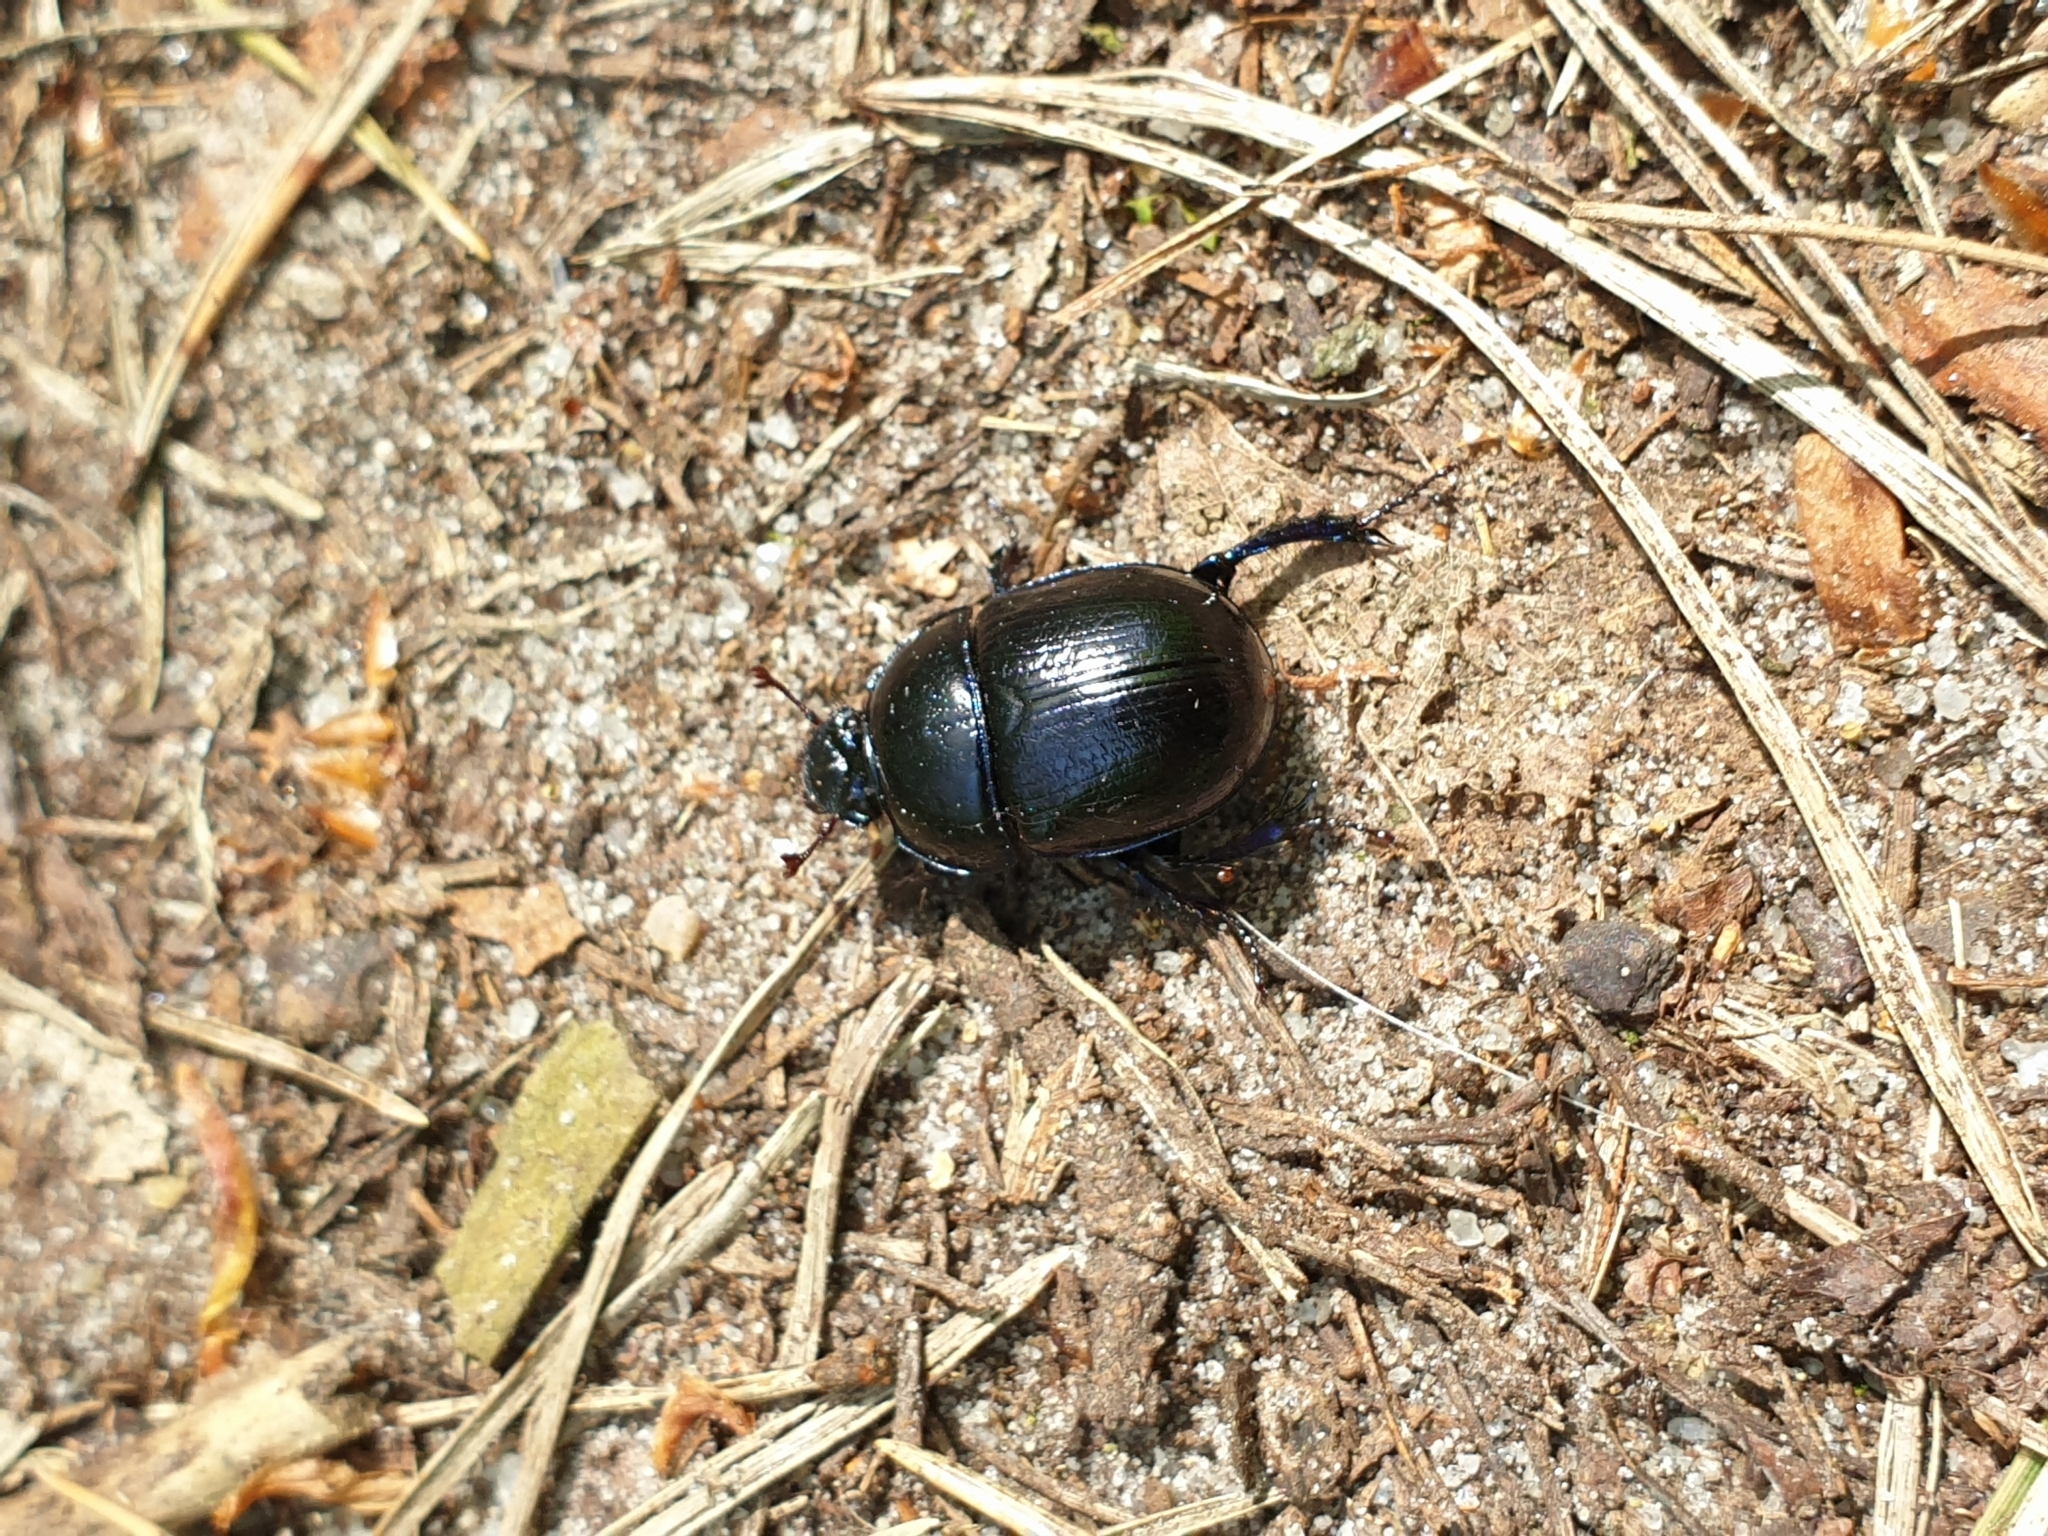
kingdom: Animalia
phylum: Arthropoda
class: Insecta
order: Coleoptera
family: Geotrupidae
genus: Anoplotrupes
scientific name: Anoplotrupes stercorosus
